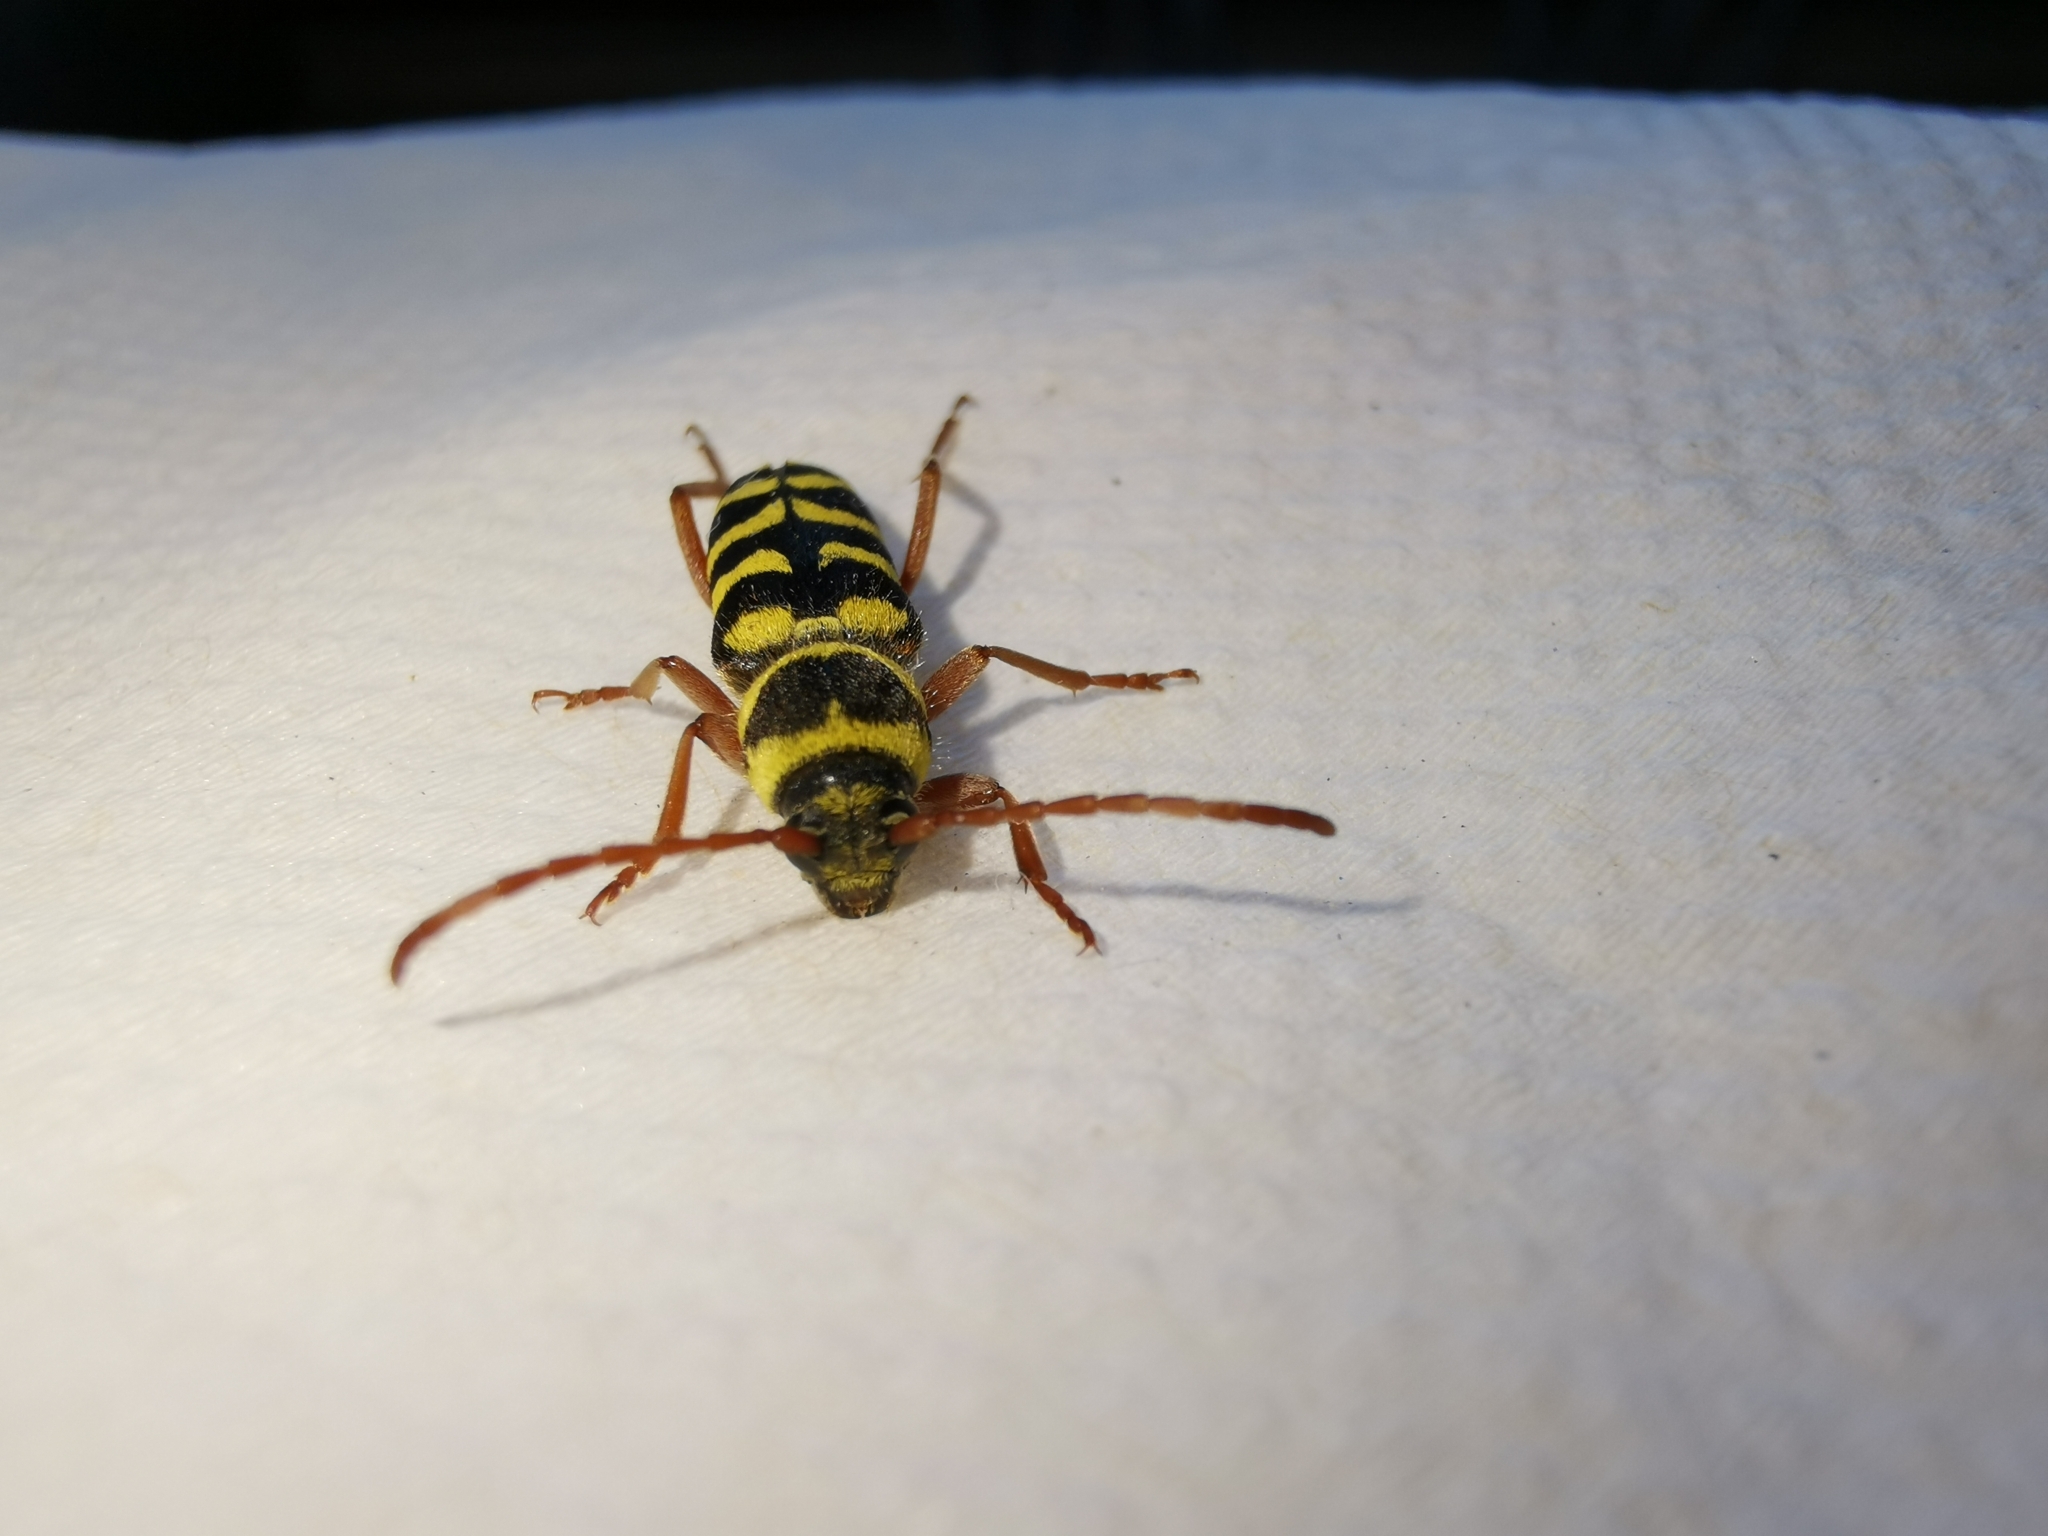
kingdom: Animalia
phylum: Arthropoda
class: Insecta
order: Coleoptera
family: Cerambycidae
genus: Plagionotus
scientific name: Plagionotus floralis
